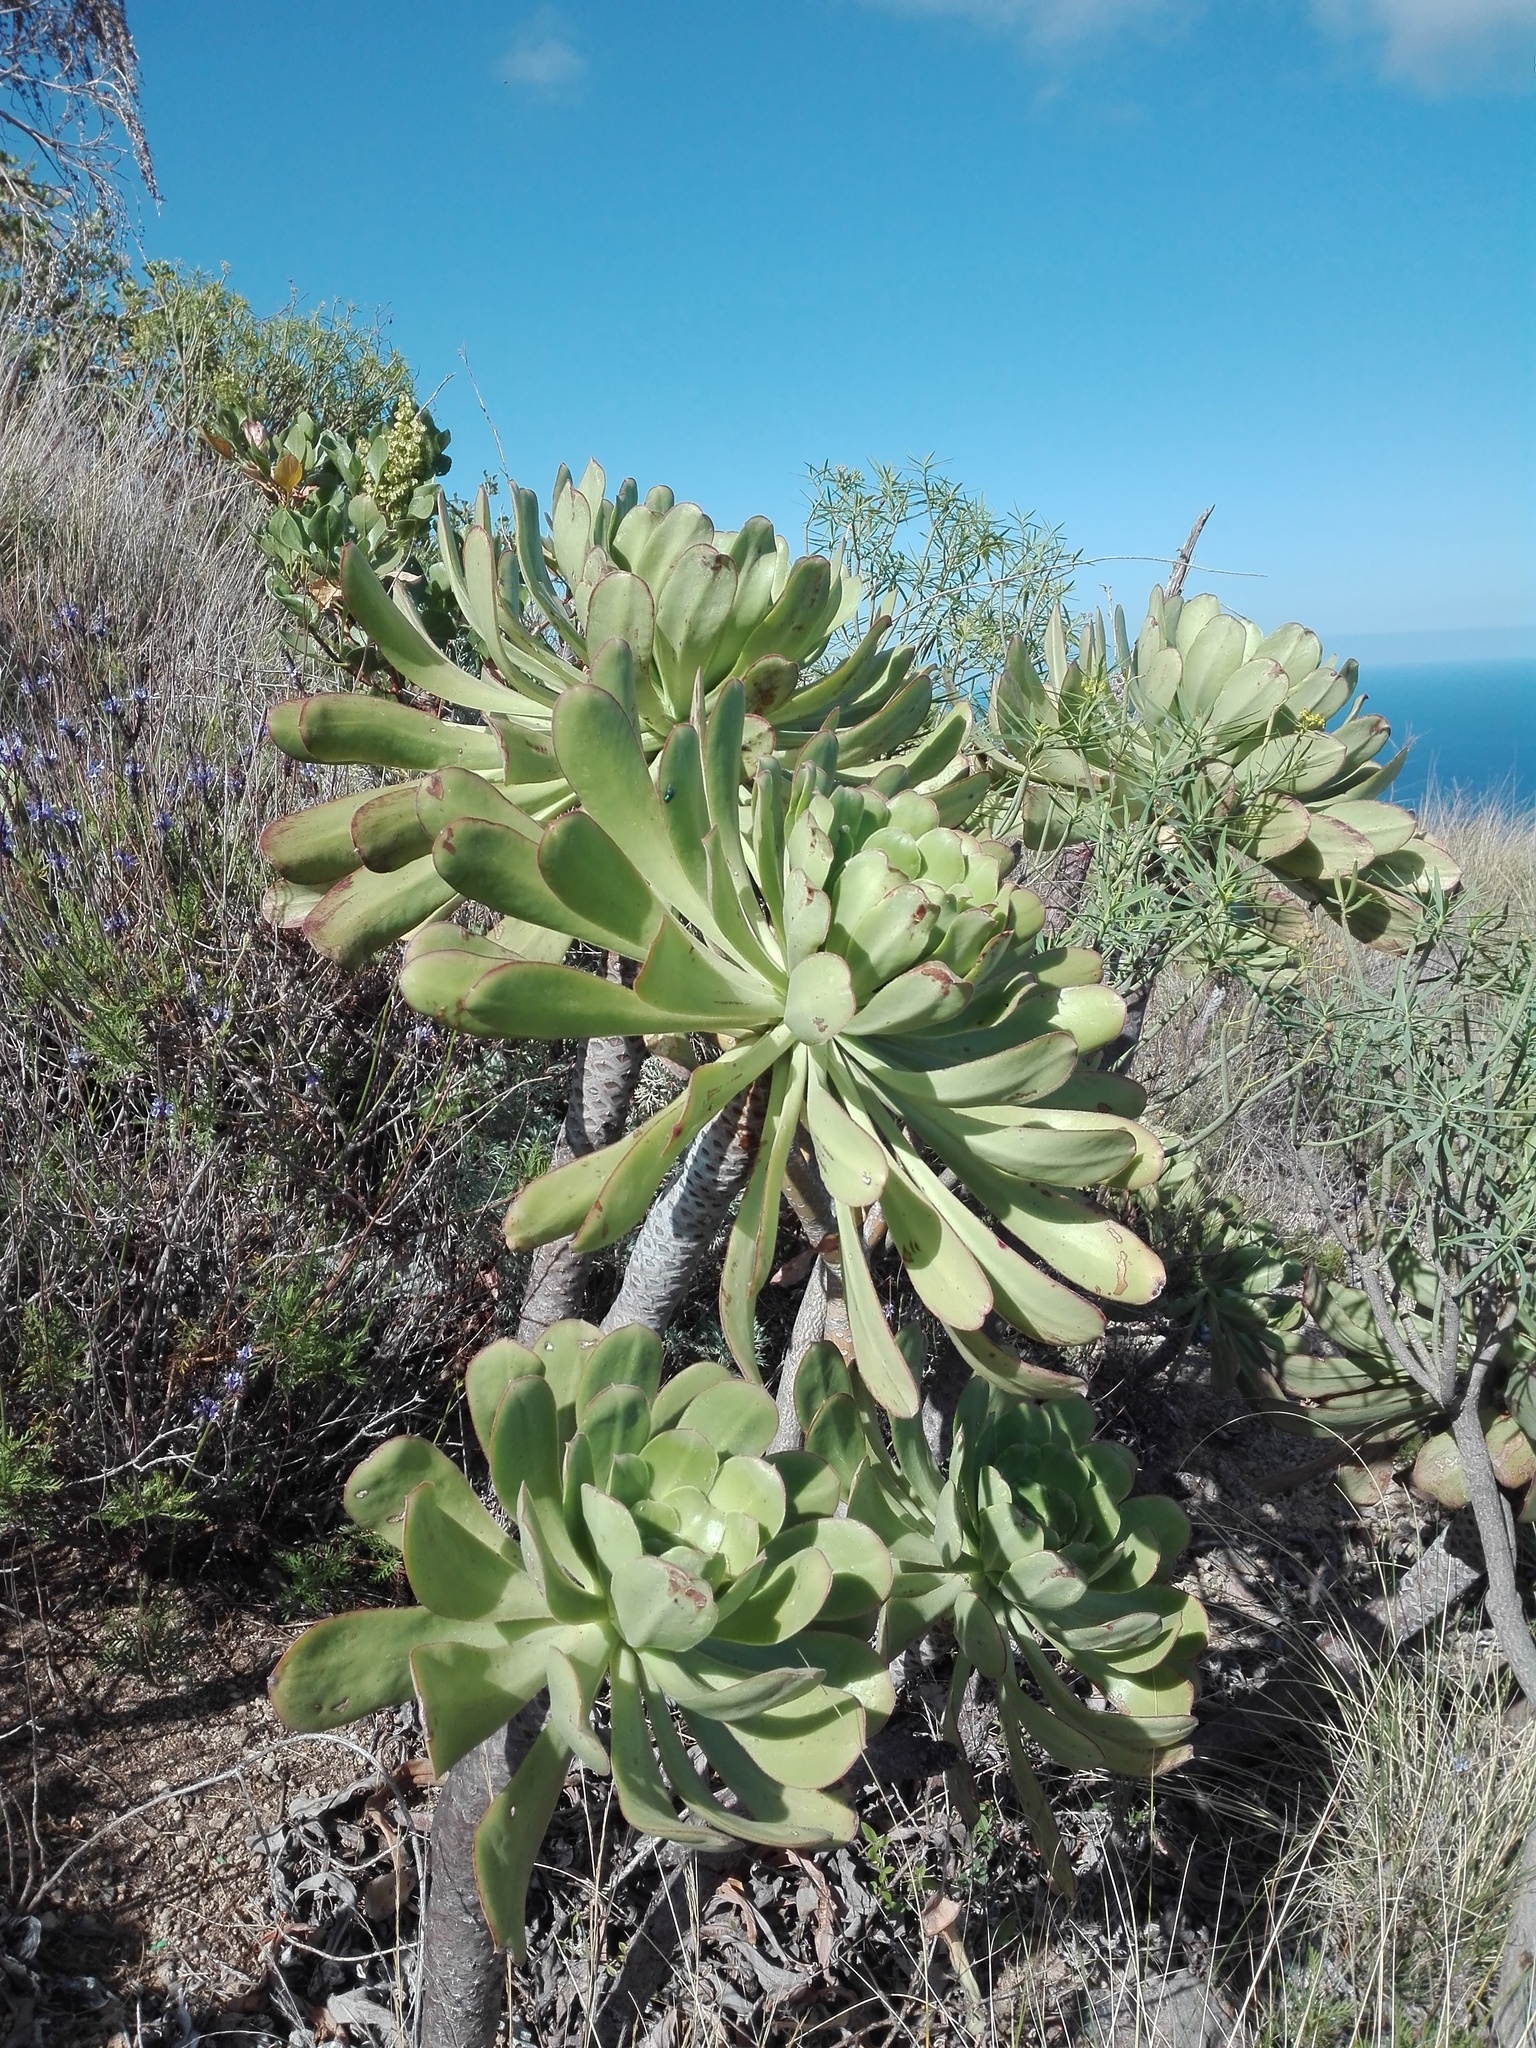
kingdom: Plantae
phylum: Tracheophyta
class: Magnoliopsida
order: Saxifragales
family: Crassulaceae
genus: Aeonium
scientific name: Aeonium urbicum
